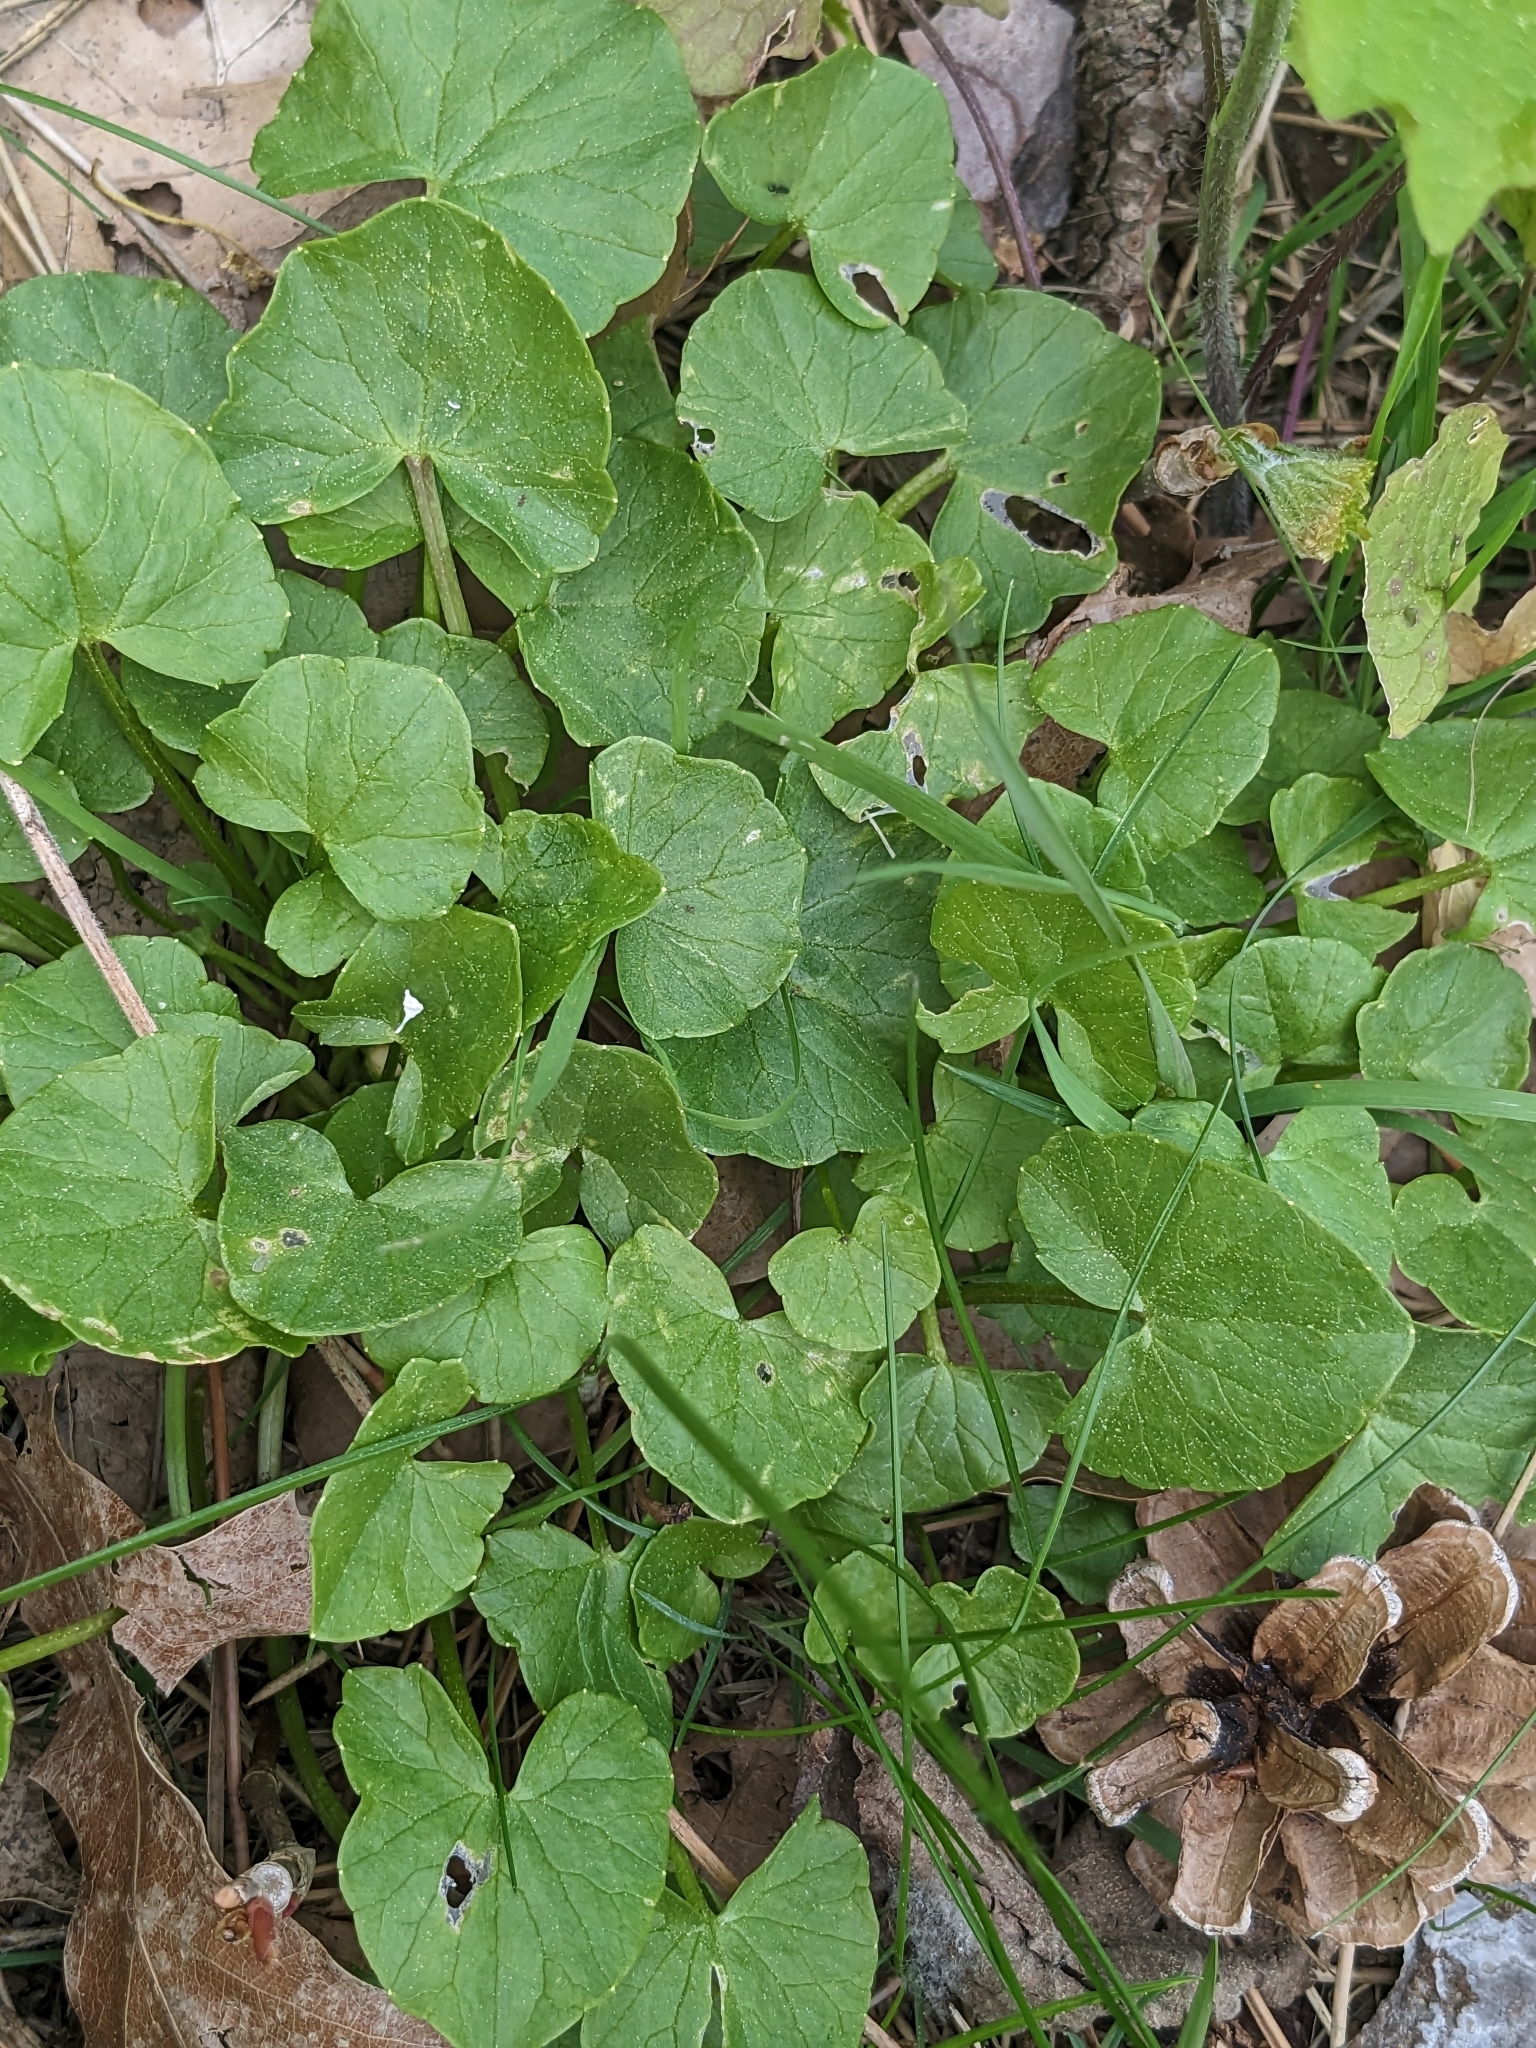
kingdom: Plantae
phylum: Tracheophyta
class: Magnoliopsida
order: Ranunculales
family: Ranunculaceae
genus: Ficaria
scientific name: Ficaria verna
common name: Lesser celandine
